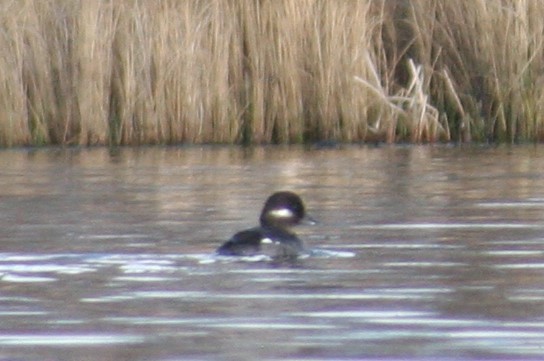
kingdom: Animalia
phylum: Chordata
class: Aves
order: Anseriformes
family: Anatidae
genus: Bucephala
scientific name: Bucephala albeola
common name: Bufflehead
